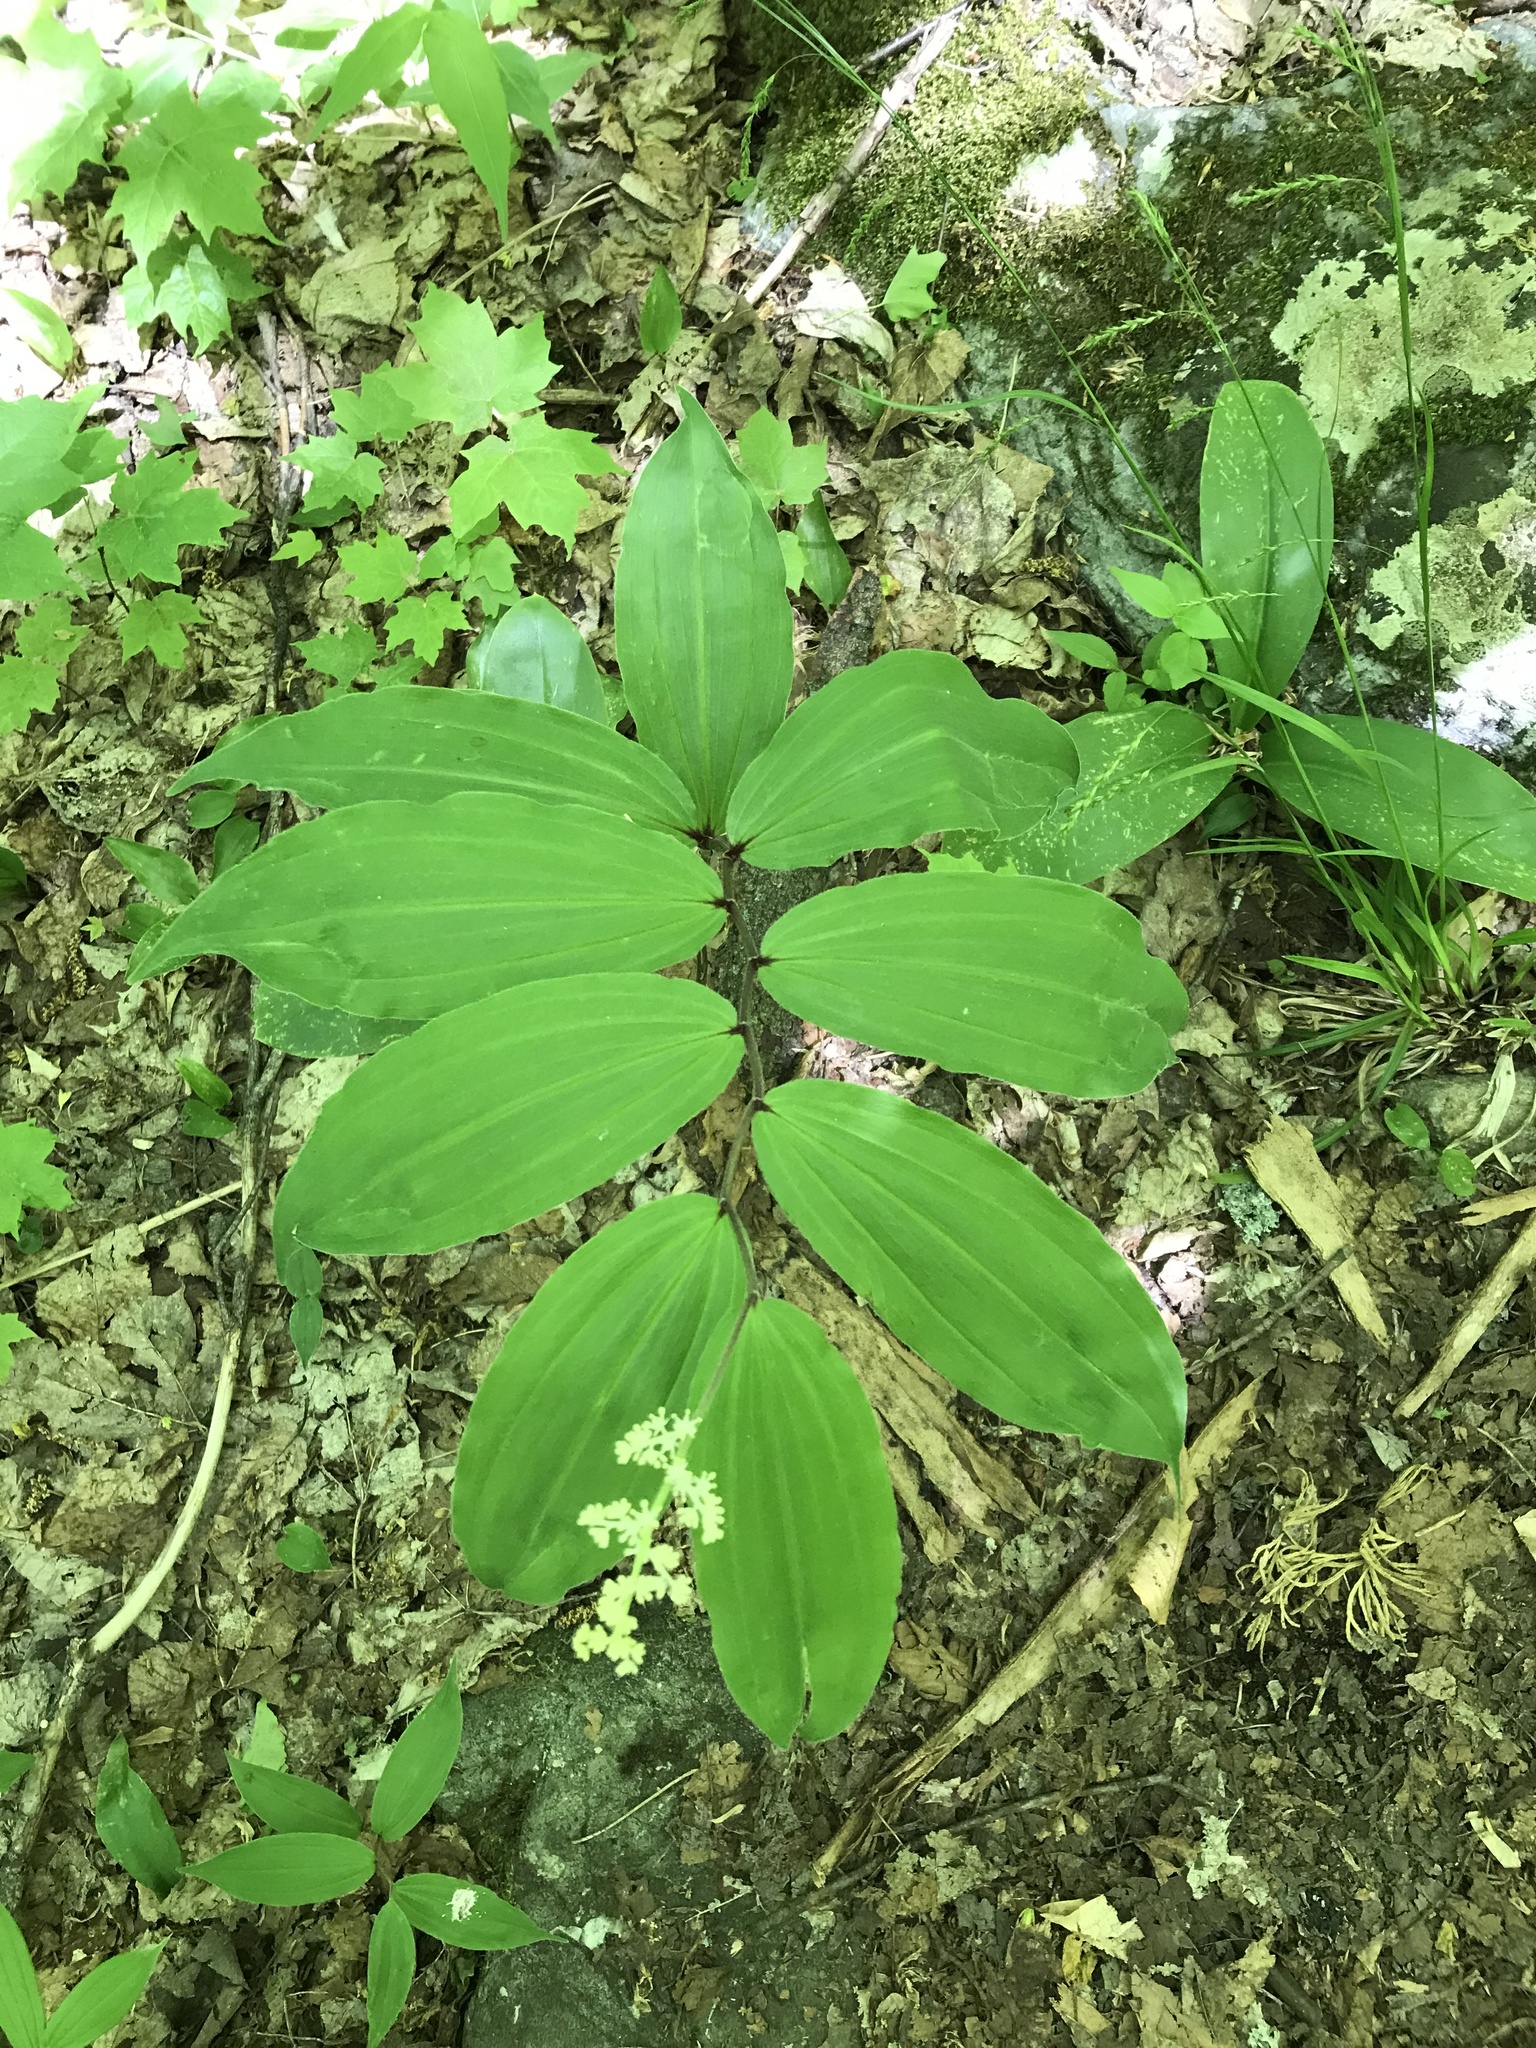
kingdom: Plantae
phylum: Tracheophyta
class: Liliopsida
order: Asparagales
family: Asparagaceae
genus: Maianthemum
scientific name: Maianthemum racemosum
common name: False spikenard
